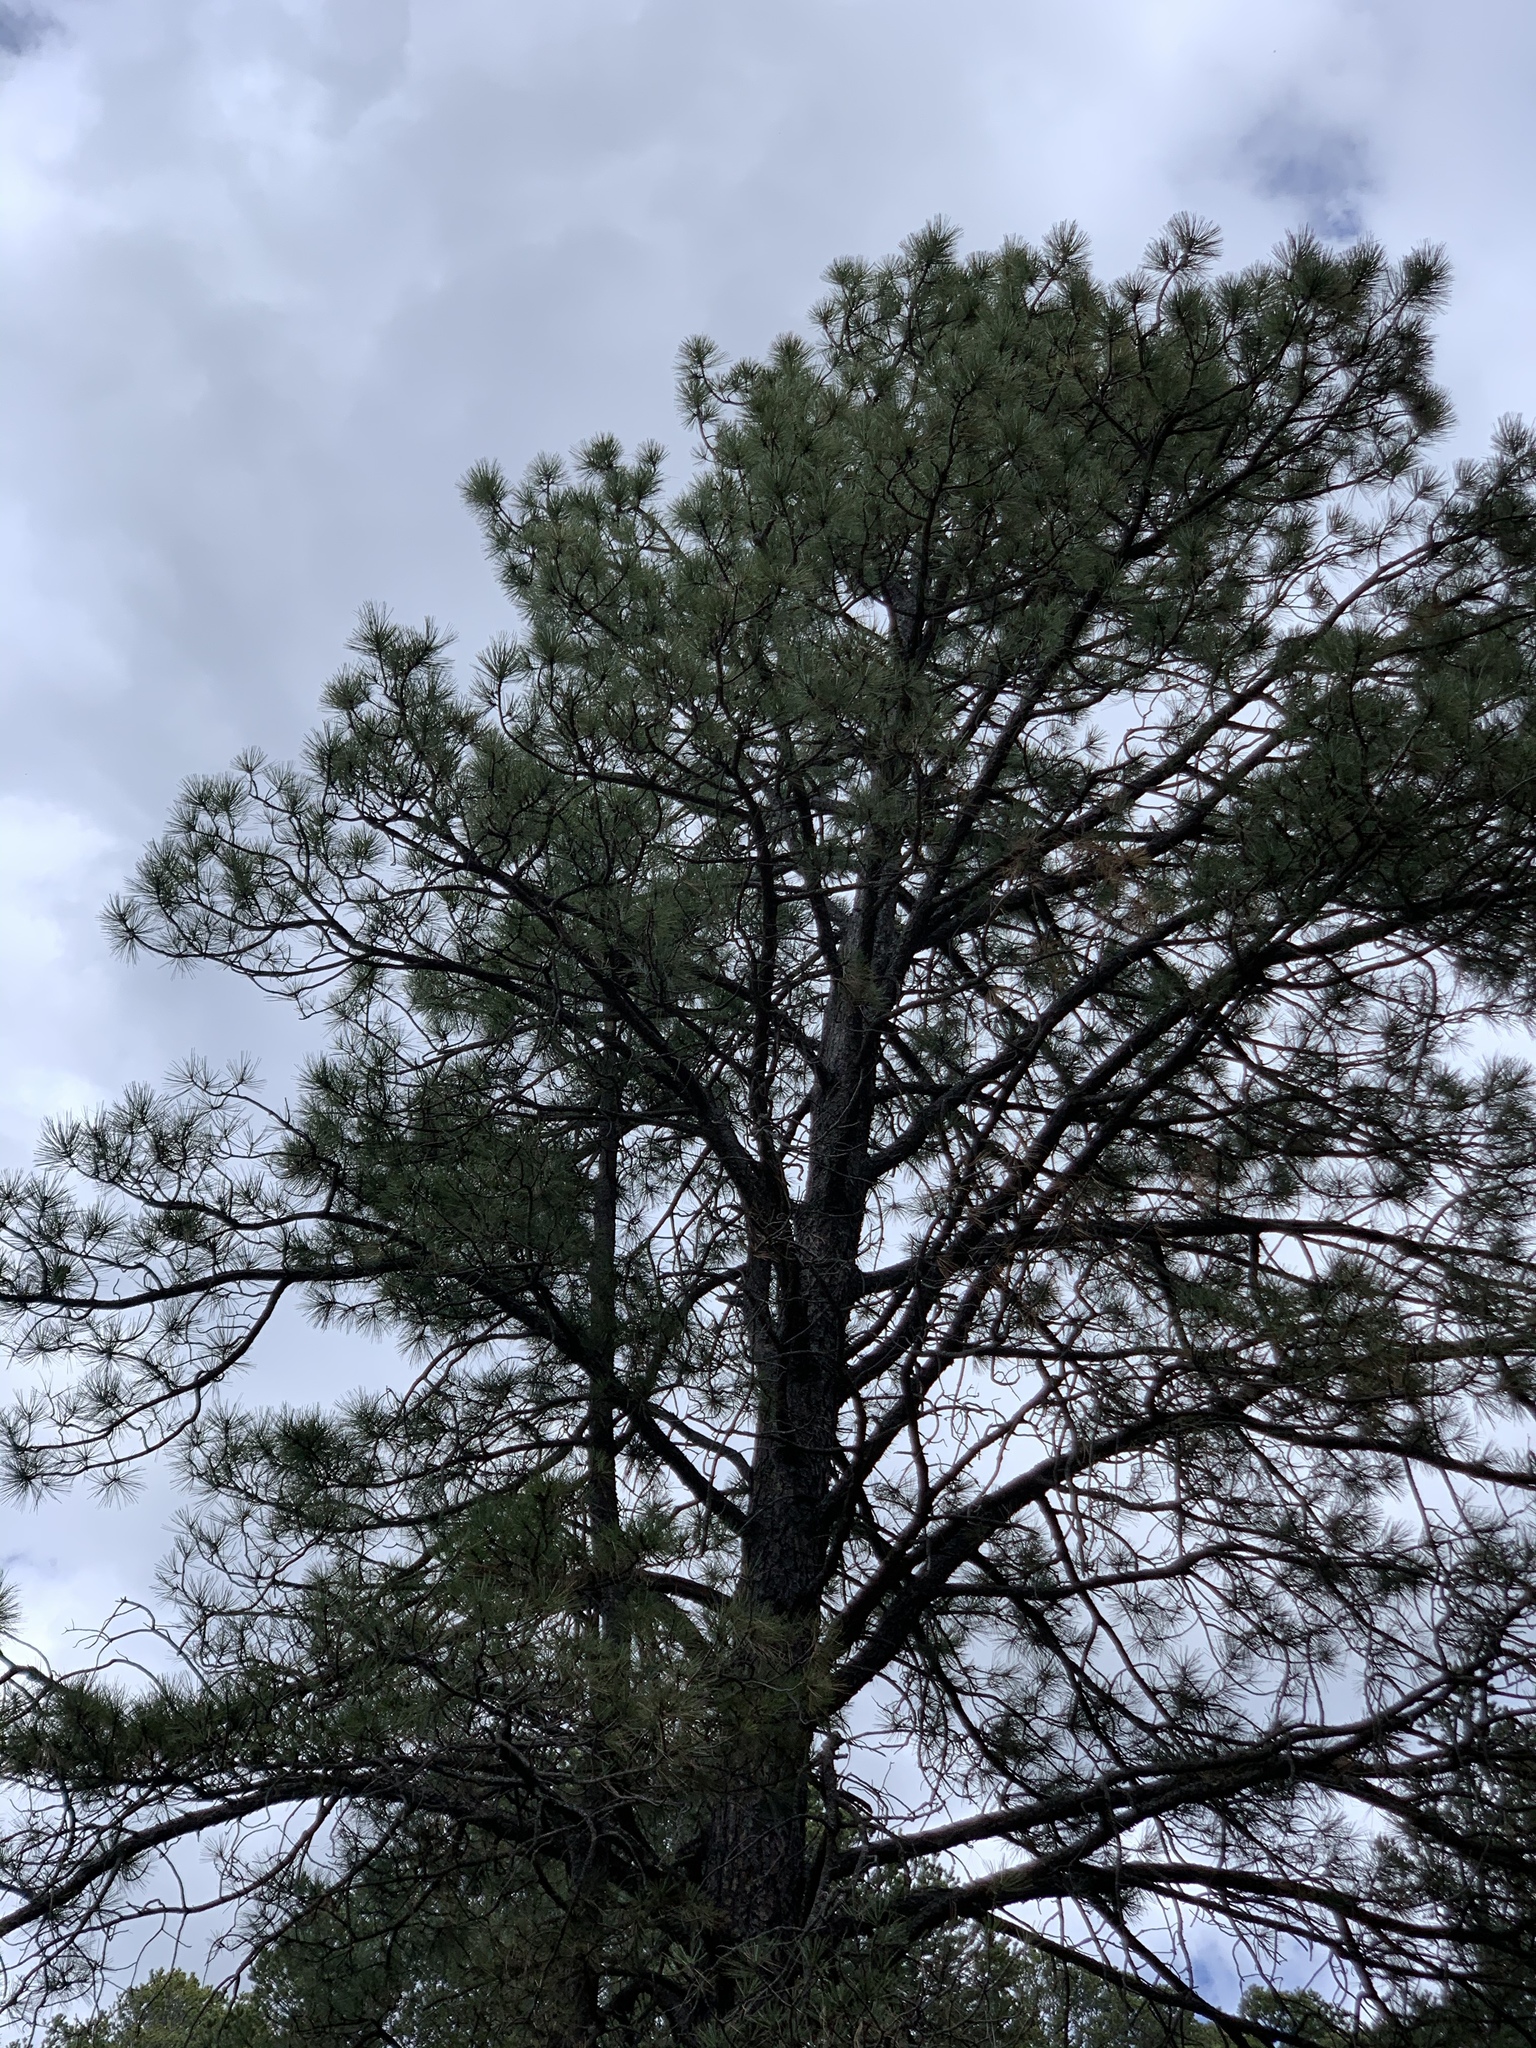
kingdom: Plantae
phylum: Tracheophyta
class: Pinopsida
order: Pinales
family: Pinaceae
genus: Pinus
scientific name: Pinus ponderosa
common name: Western yellow-pine
